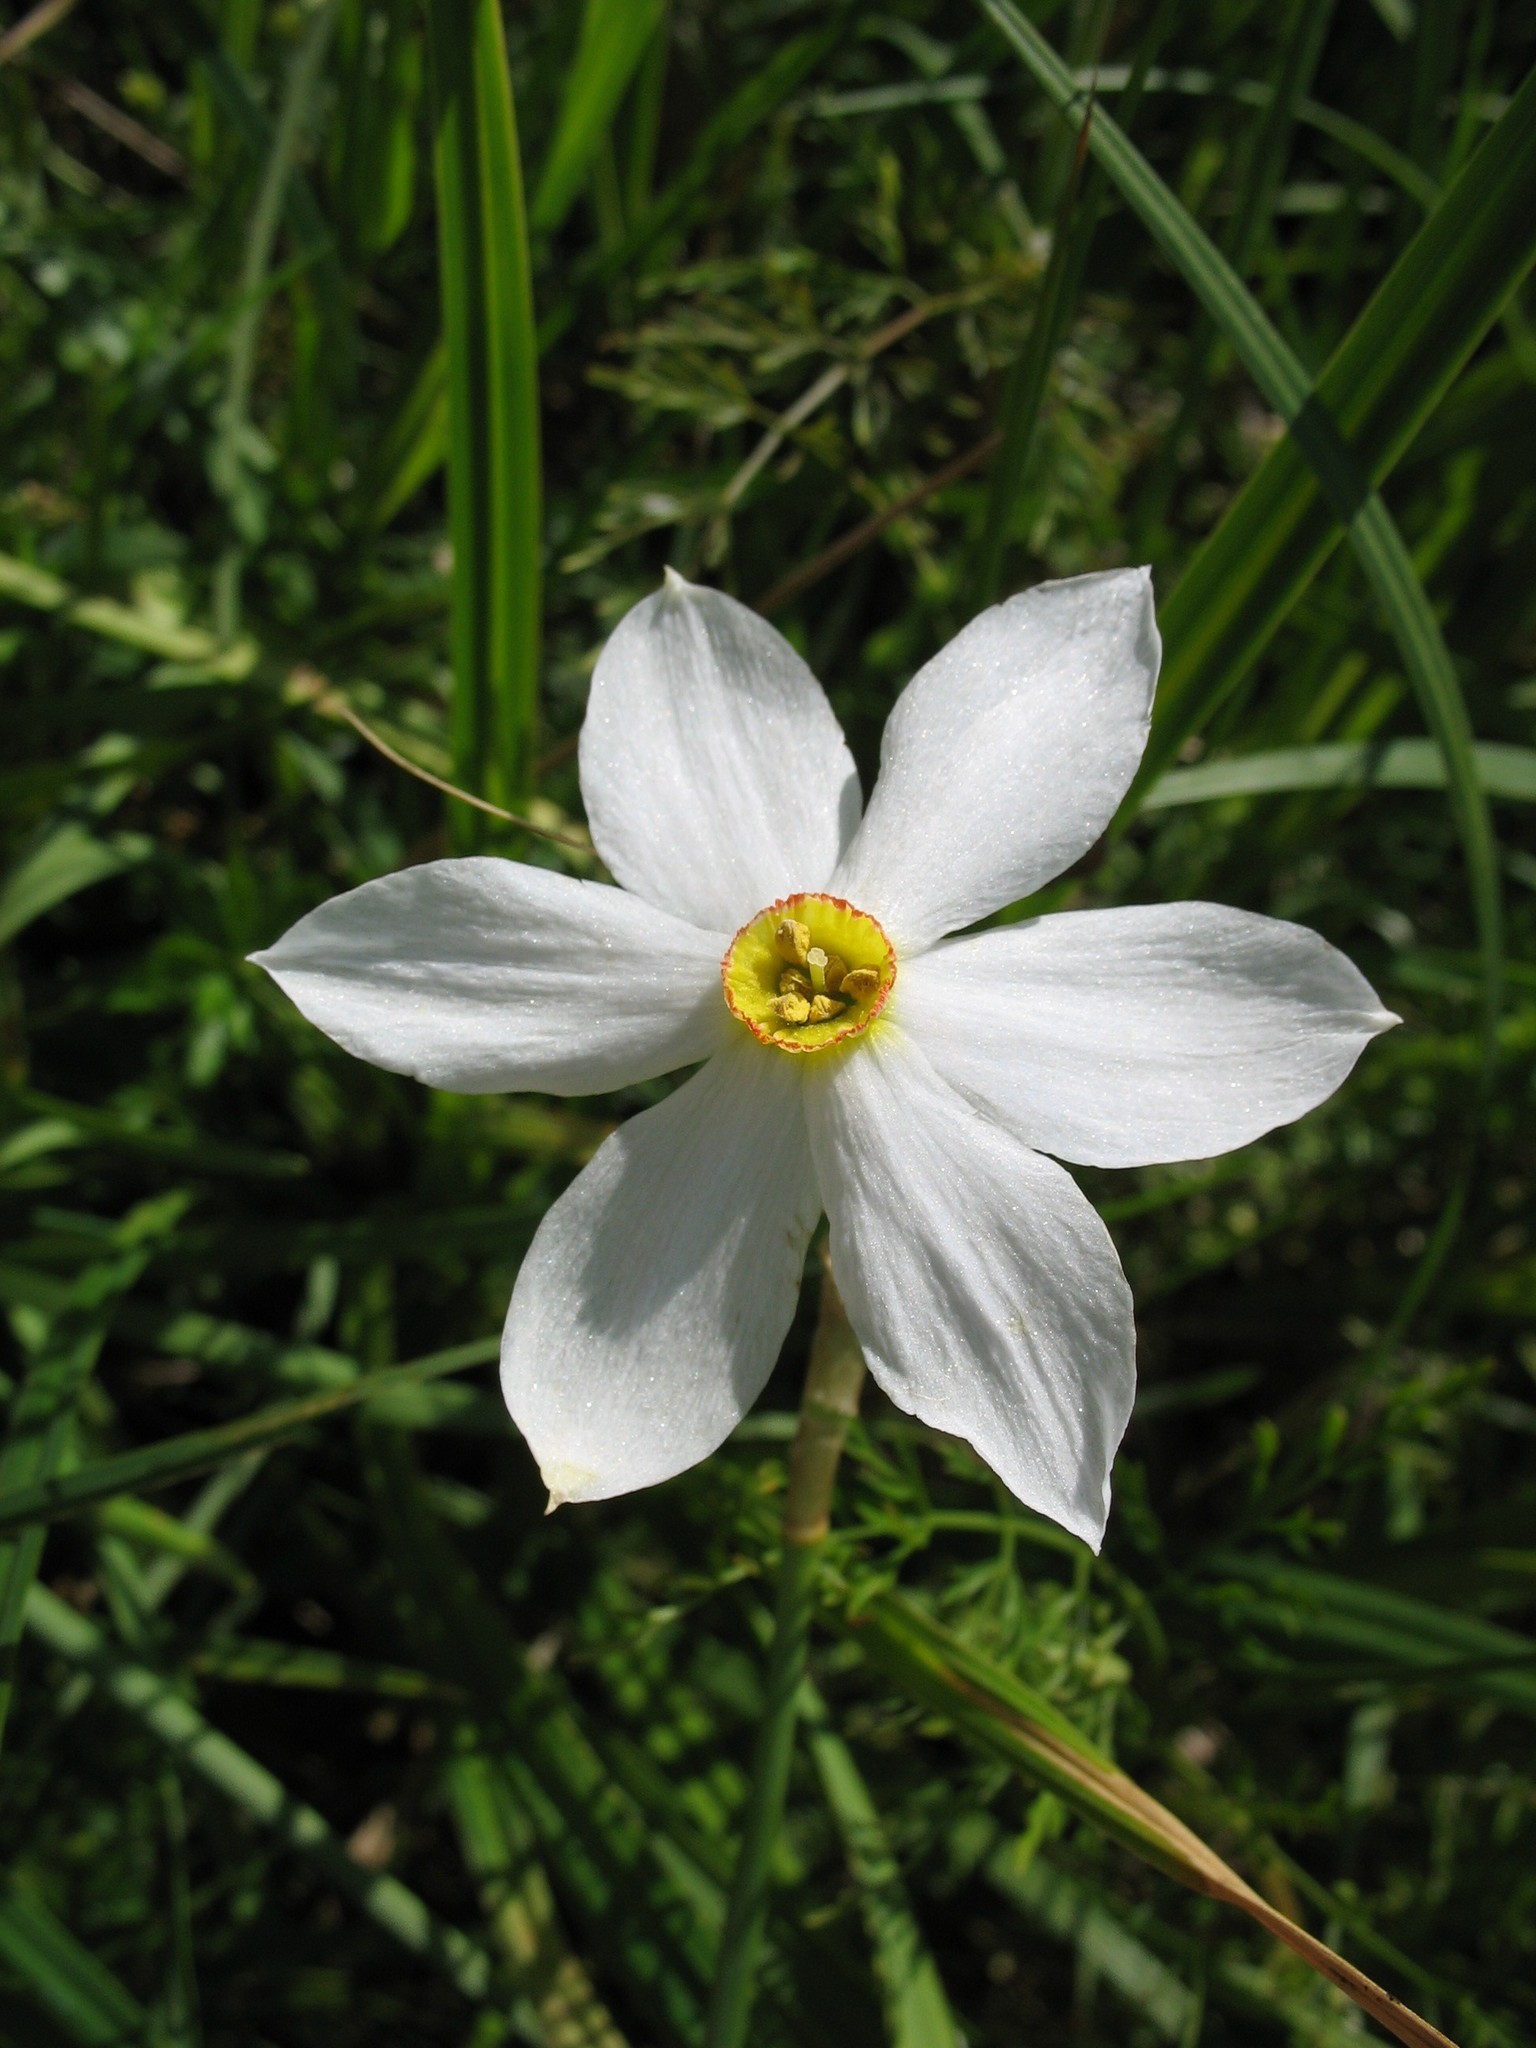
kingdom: Plantae
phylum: Tracheophyta
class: Liliopsida
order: Asparagales
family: Amaryllidaceae
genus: Narcissus
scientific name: Narcissus poeticus
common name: Pheasant's-eye daffodil
